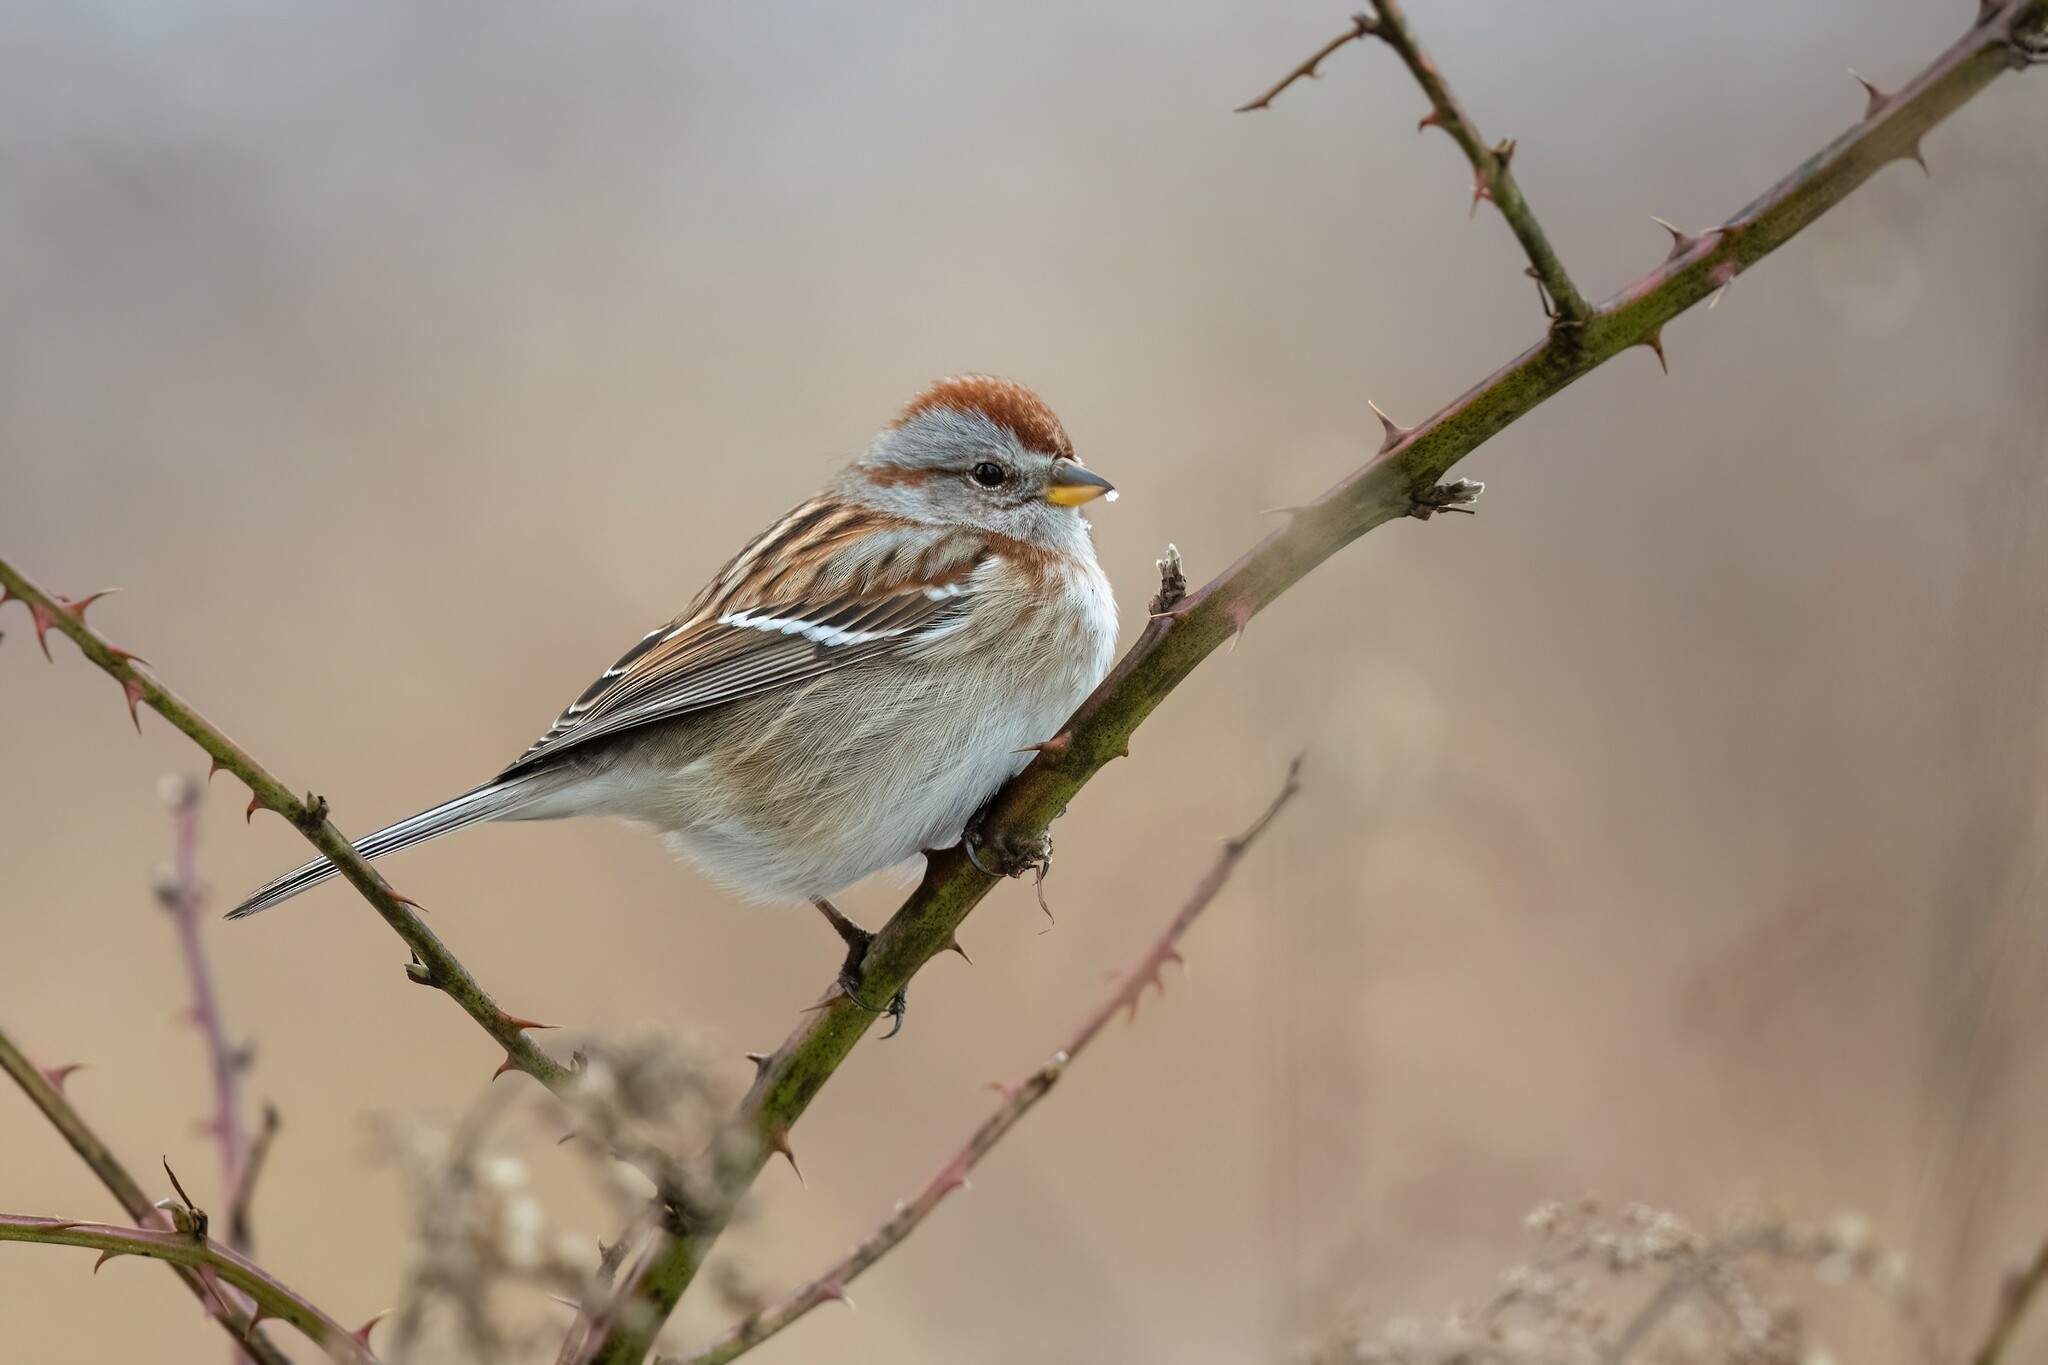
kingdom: Animalia
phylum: Chordata
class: Aves
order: Passeriformes
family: Passerellidae
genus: Spizelloides
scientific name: Spizelloides arborea
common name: American tree sparrow
